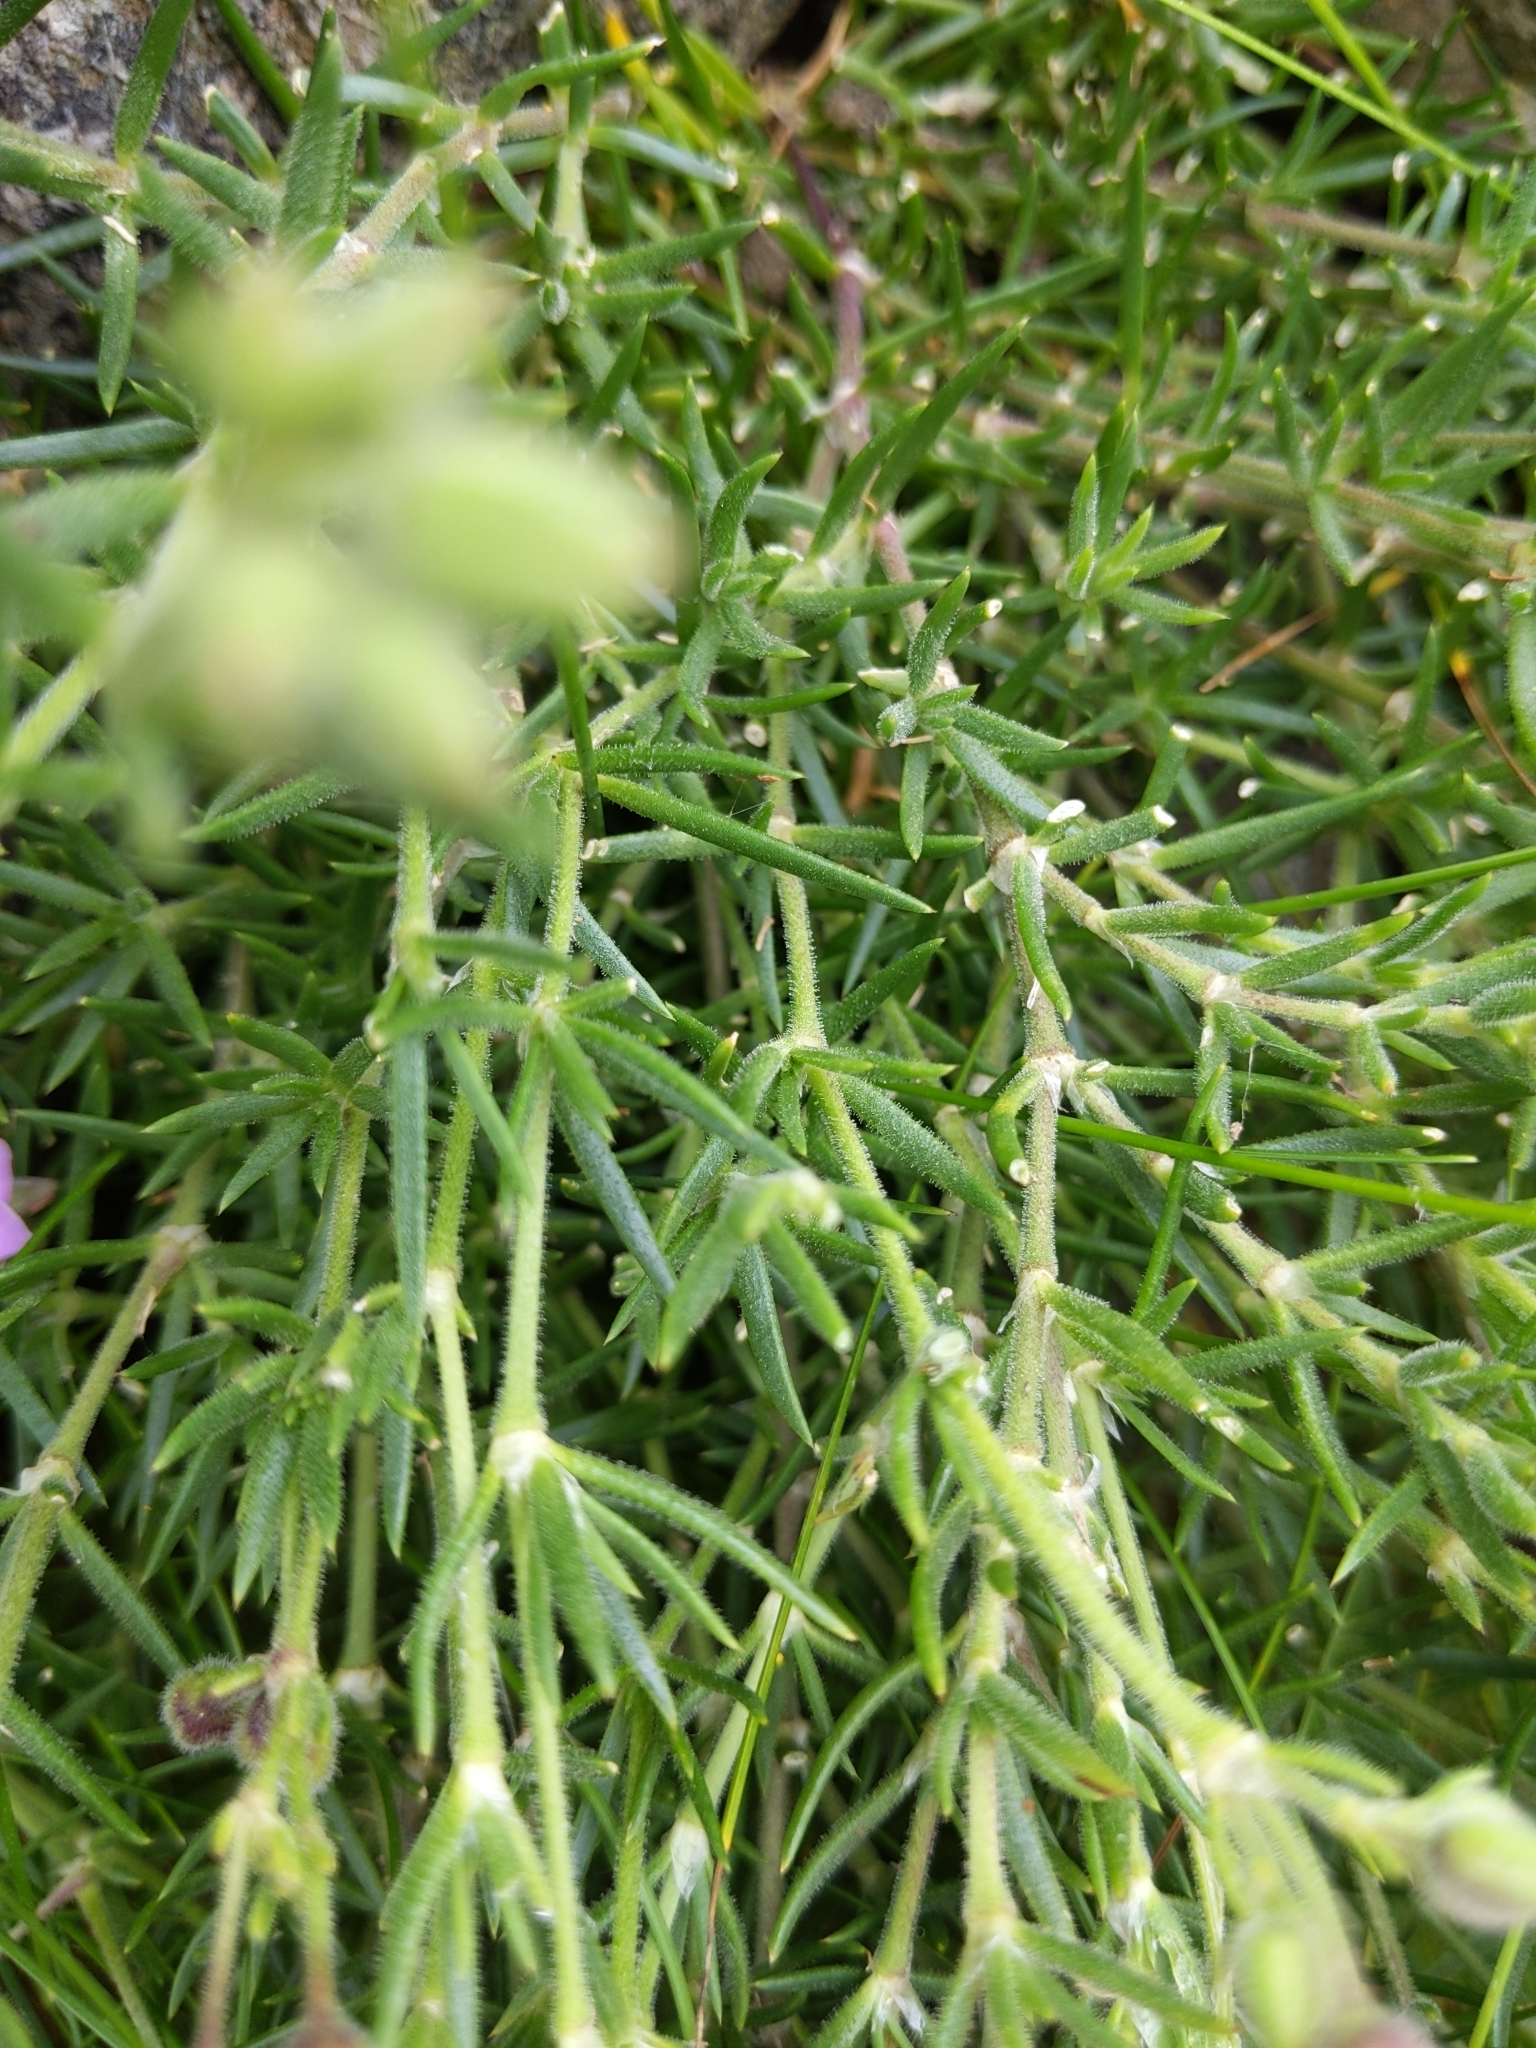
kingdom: Plantae
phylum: Tracheophyta
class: Magnoliopsida
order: Caryophyllales
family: Caryophyllaceae
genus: Spergularia
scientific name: Spergularia rupicola
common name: Cliff sand-spurrey
